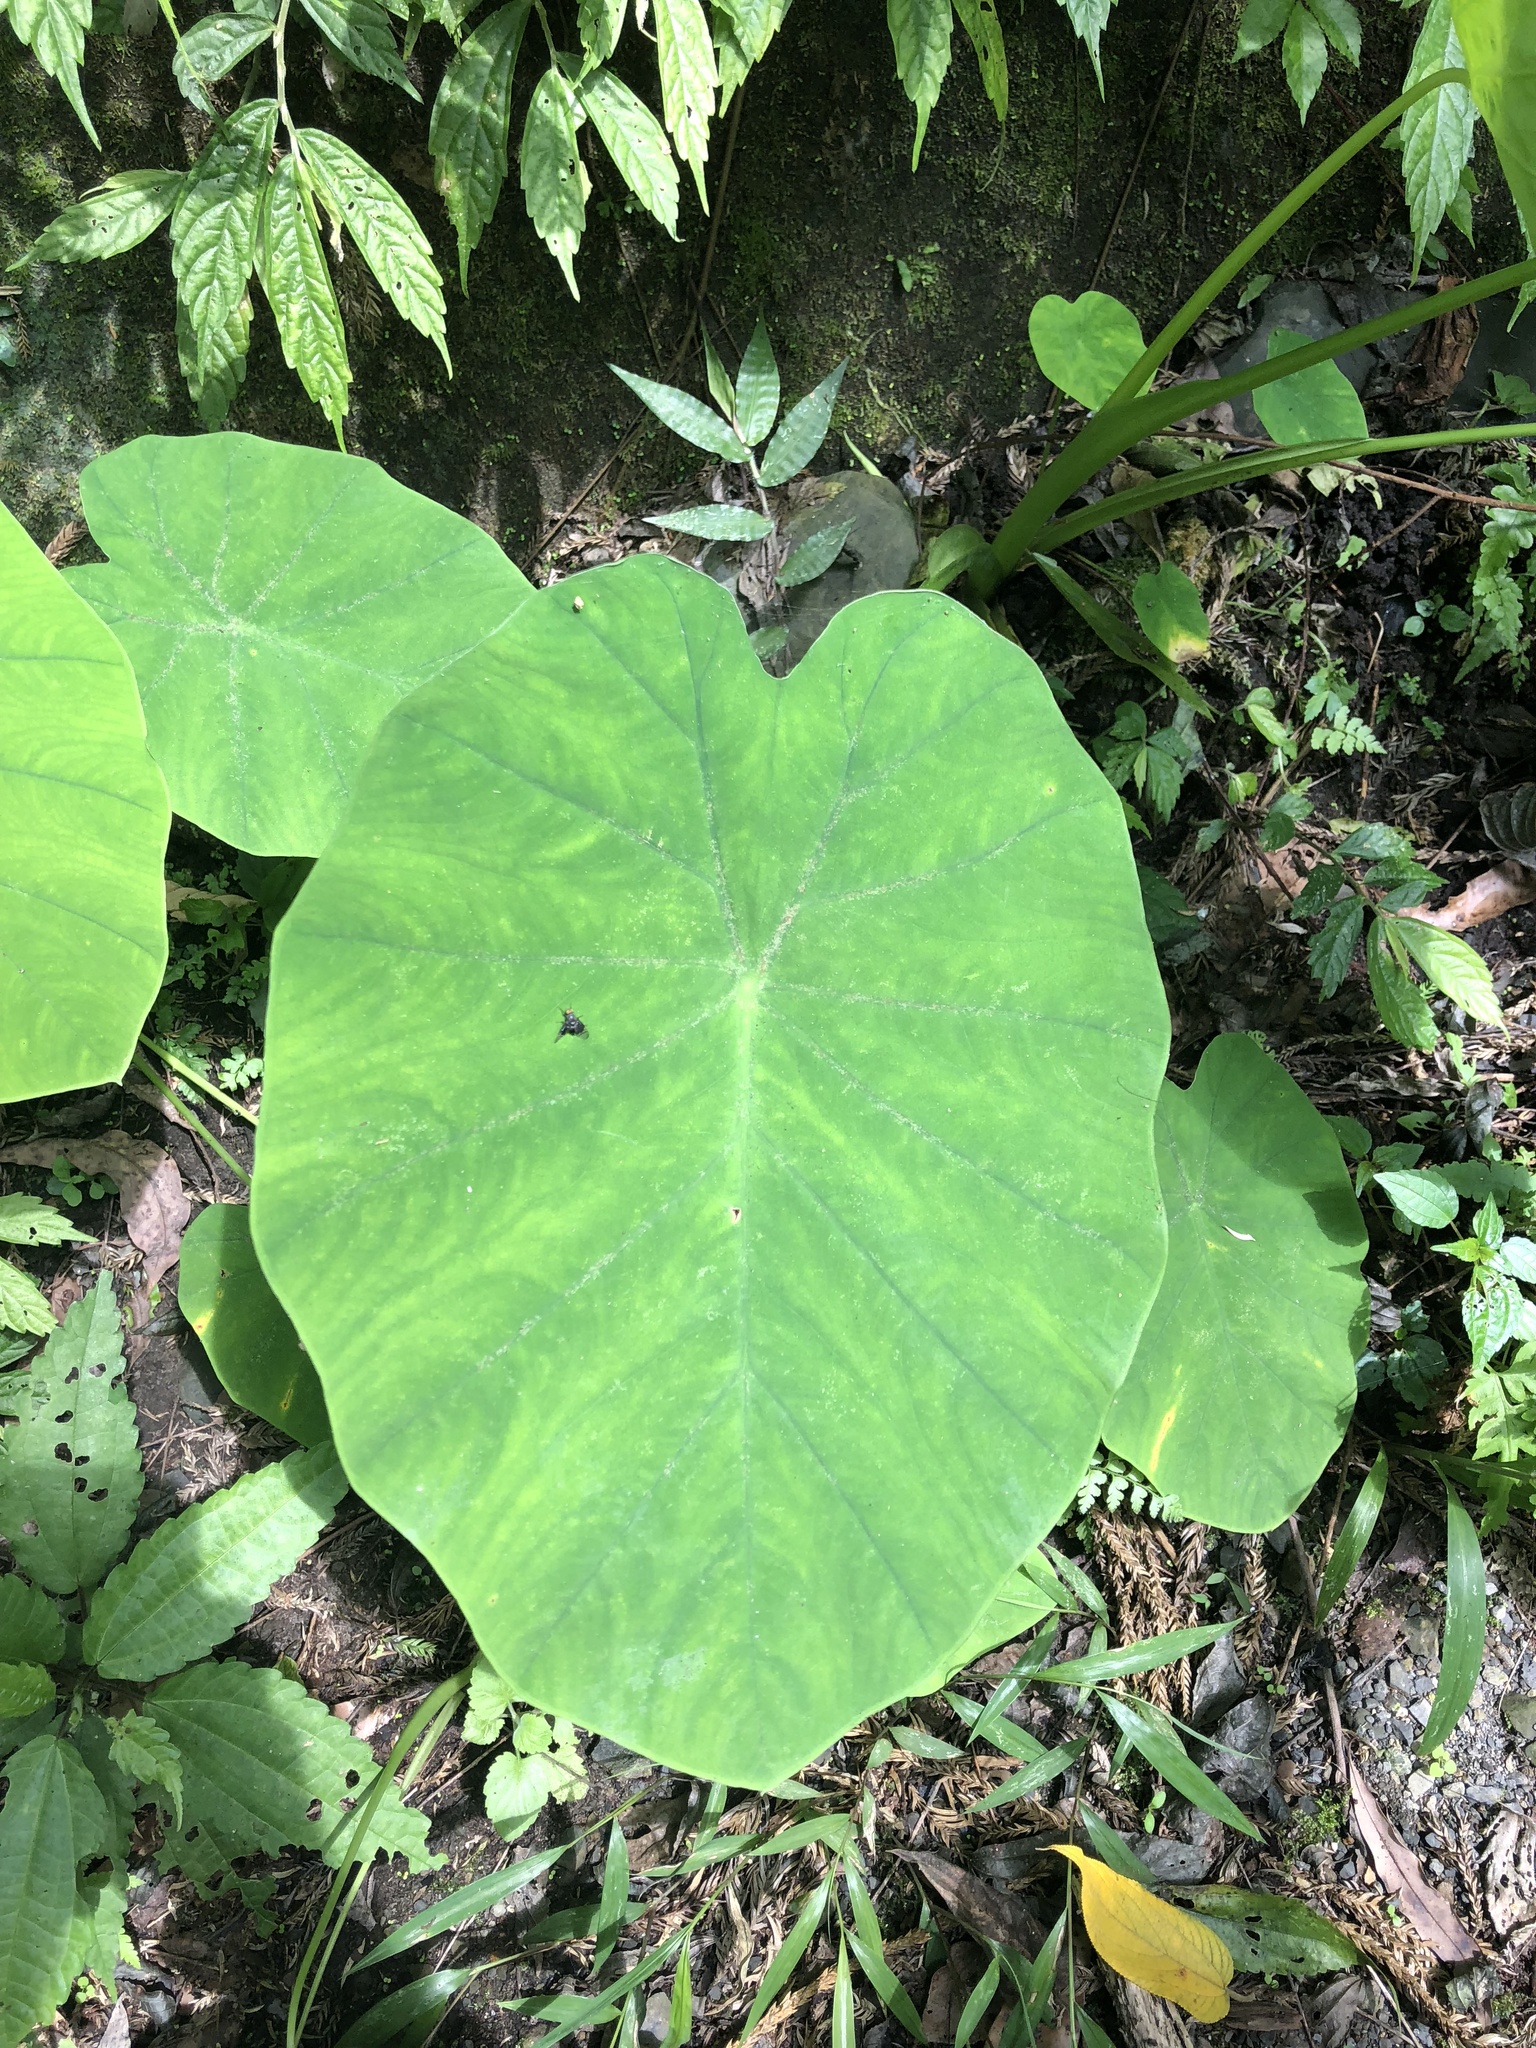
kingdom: Plantae
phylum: Tracheophyta
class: Liliopsida
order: Alismatales
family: Araceae
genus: Colocasia
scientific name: Colocasia esculenta
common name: Taro
